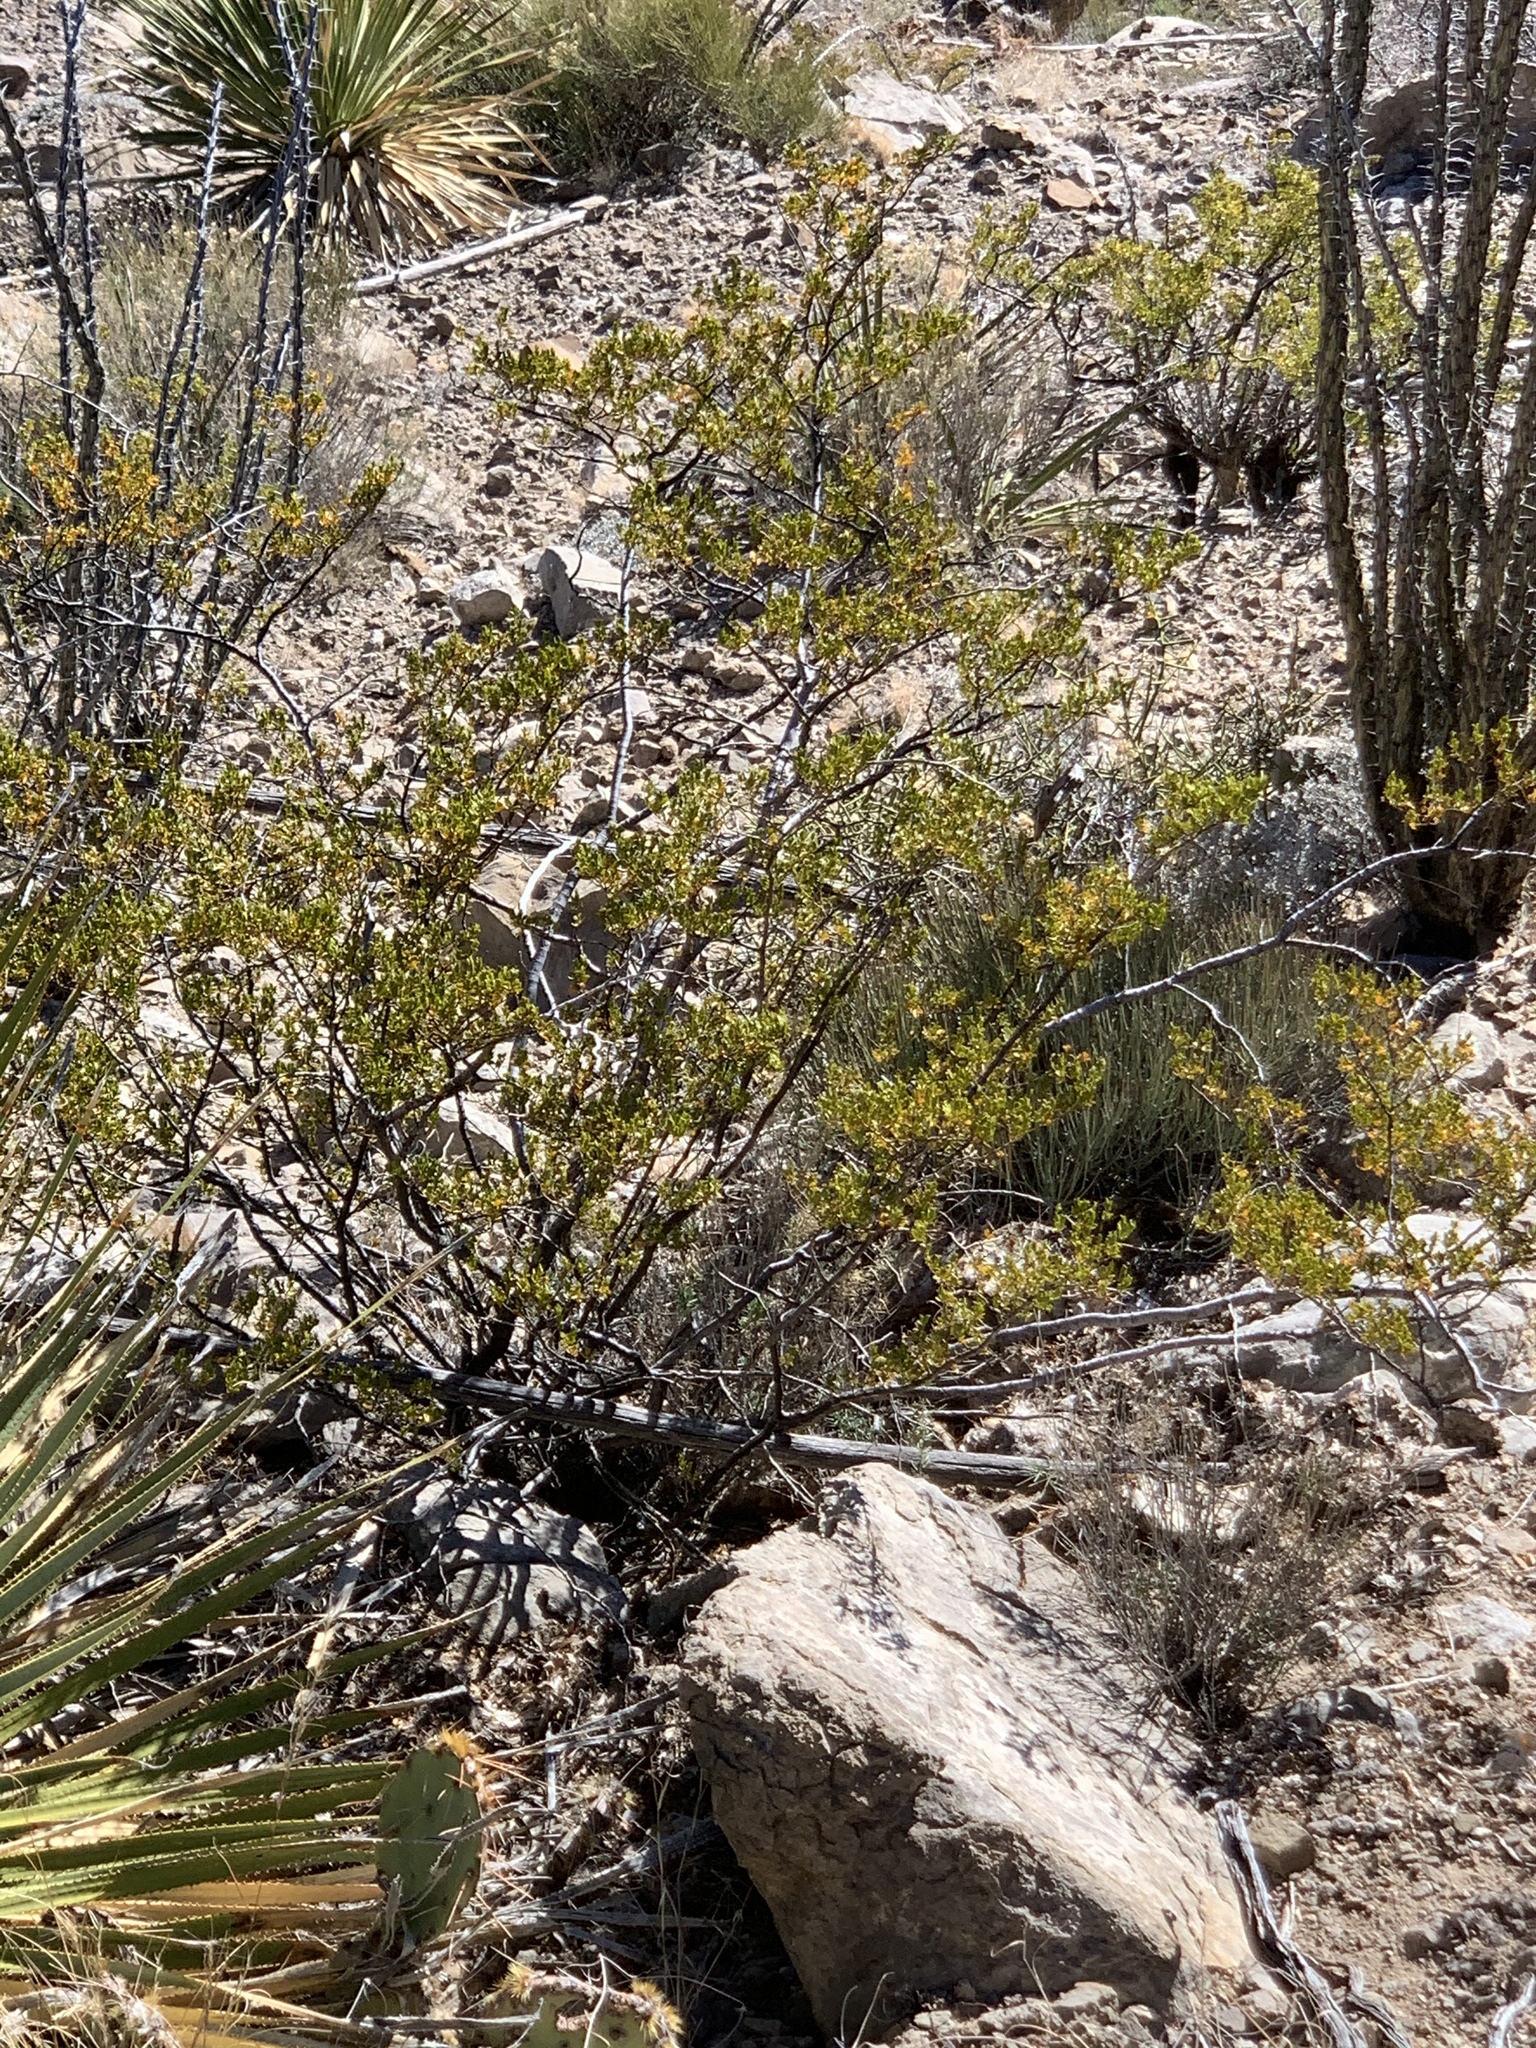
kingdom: Plantae
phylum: Tracheophyta
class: Magnoliopsida
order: Zygophyllales
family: Zygophyllaceae
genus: Larrea
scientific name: Larrea tridentata
